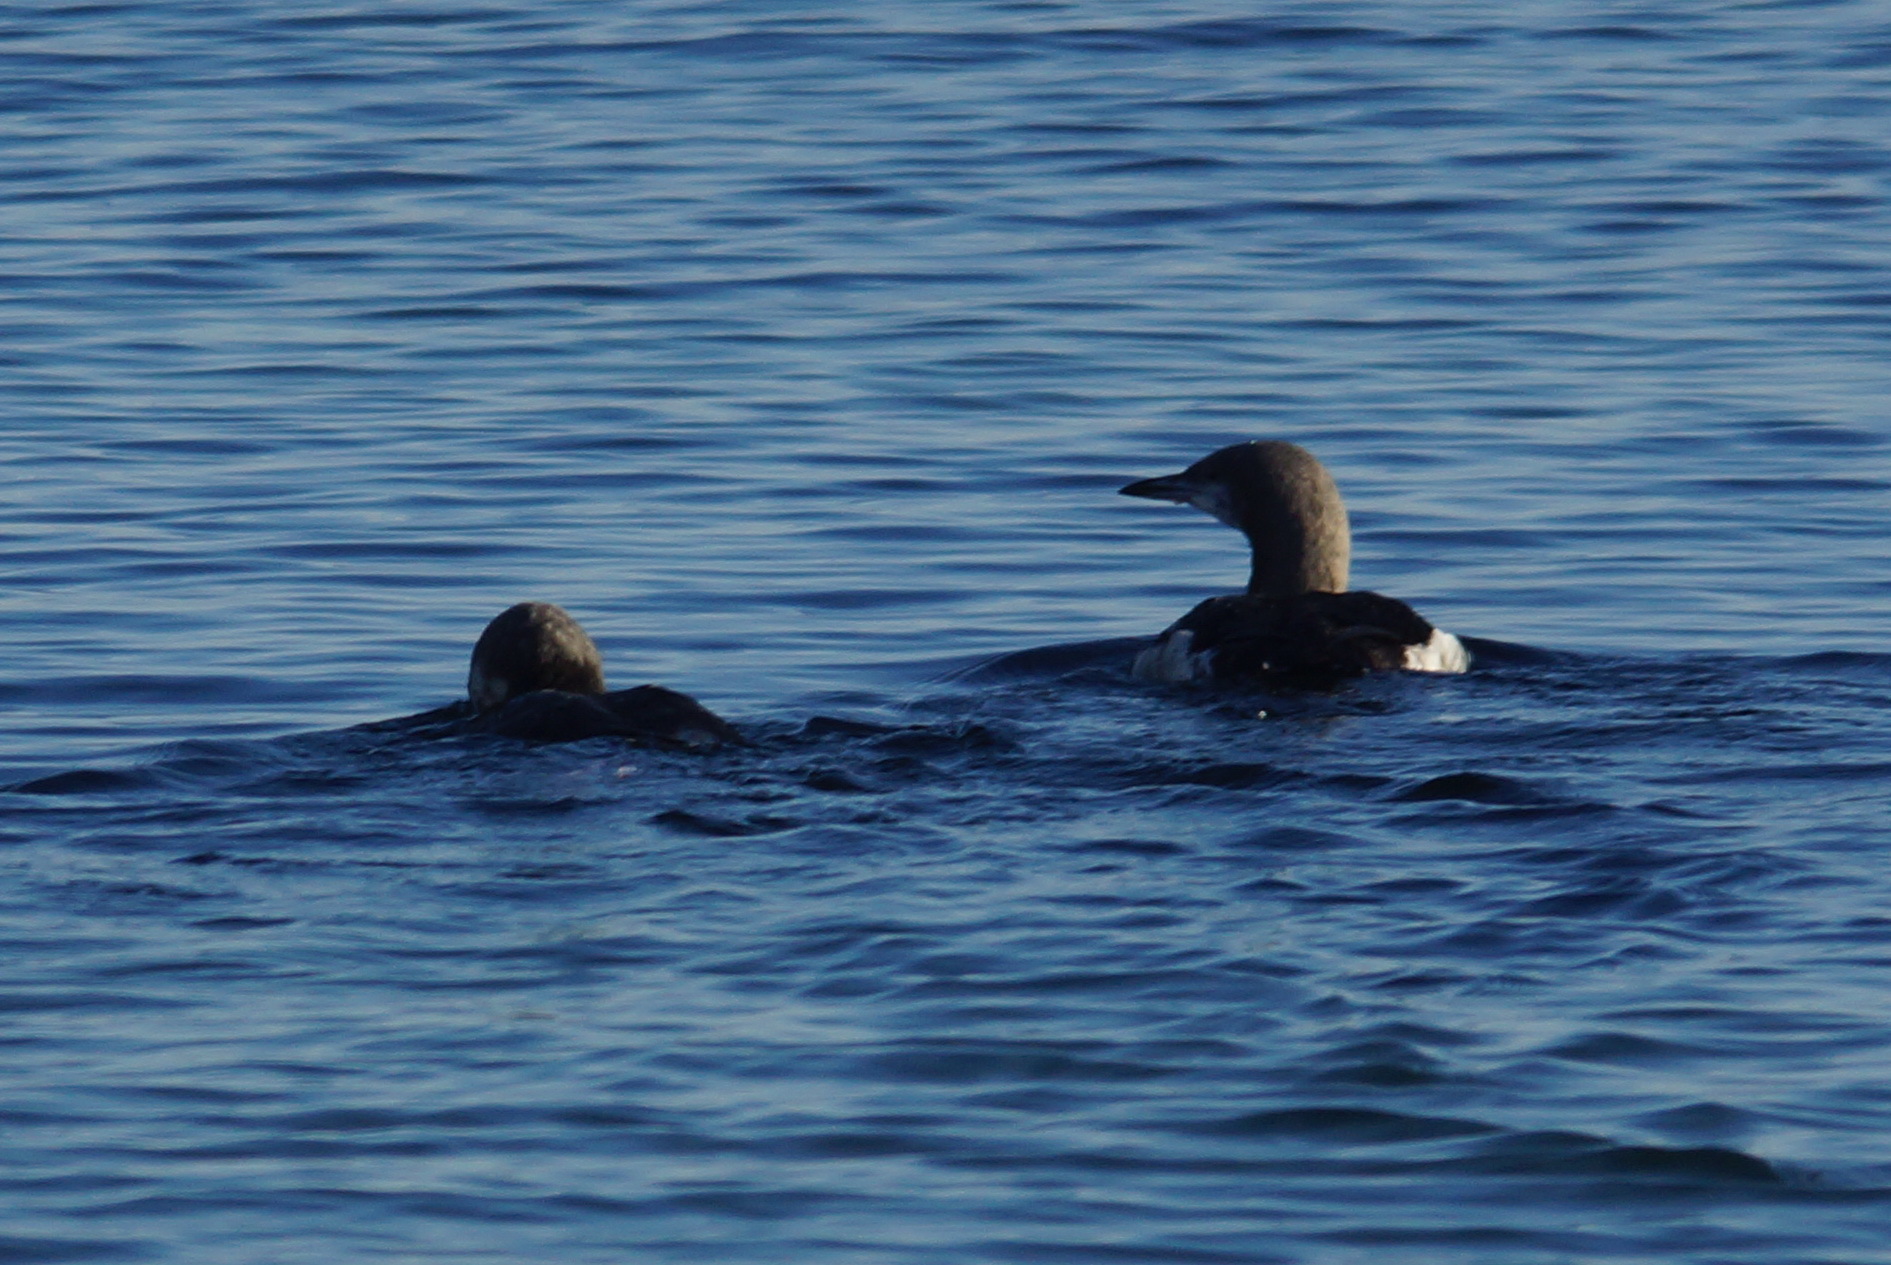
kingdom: Animalia
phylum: Chordata
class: Aves
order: Gaviiformes
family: Gaviidae
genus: Gavia
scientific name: Gavia arctica
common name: Black-throated loon
